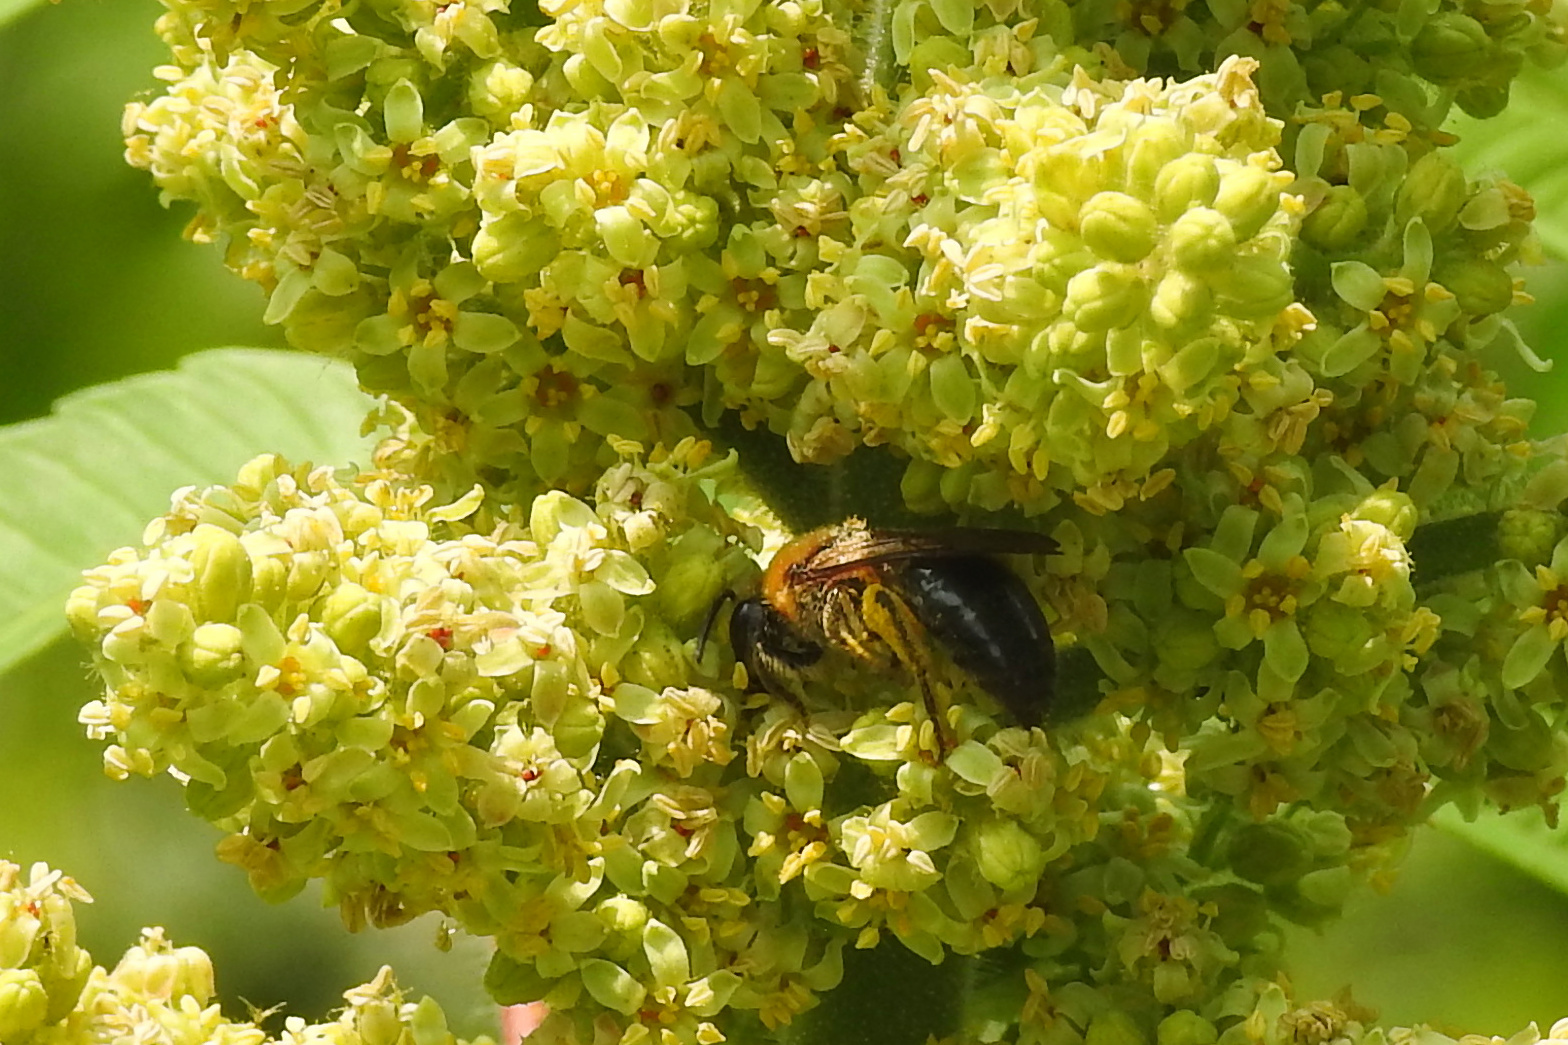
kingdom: Animalia
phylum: Arthropoda
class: Insecta
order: Hymenoptera
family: Colletidae
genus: Colletes
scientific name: Colletes thoracicus
